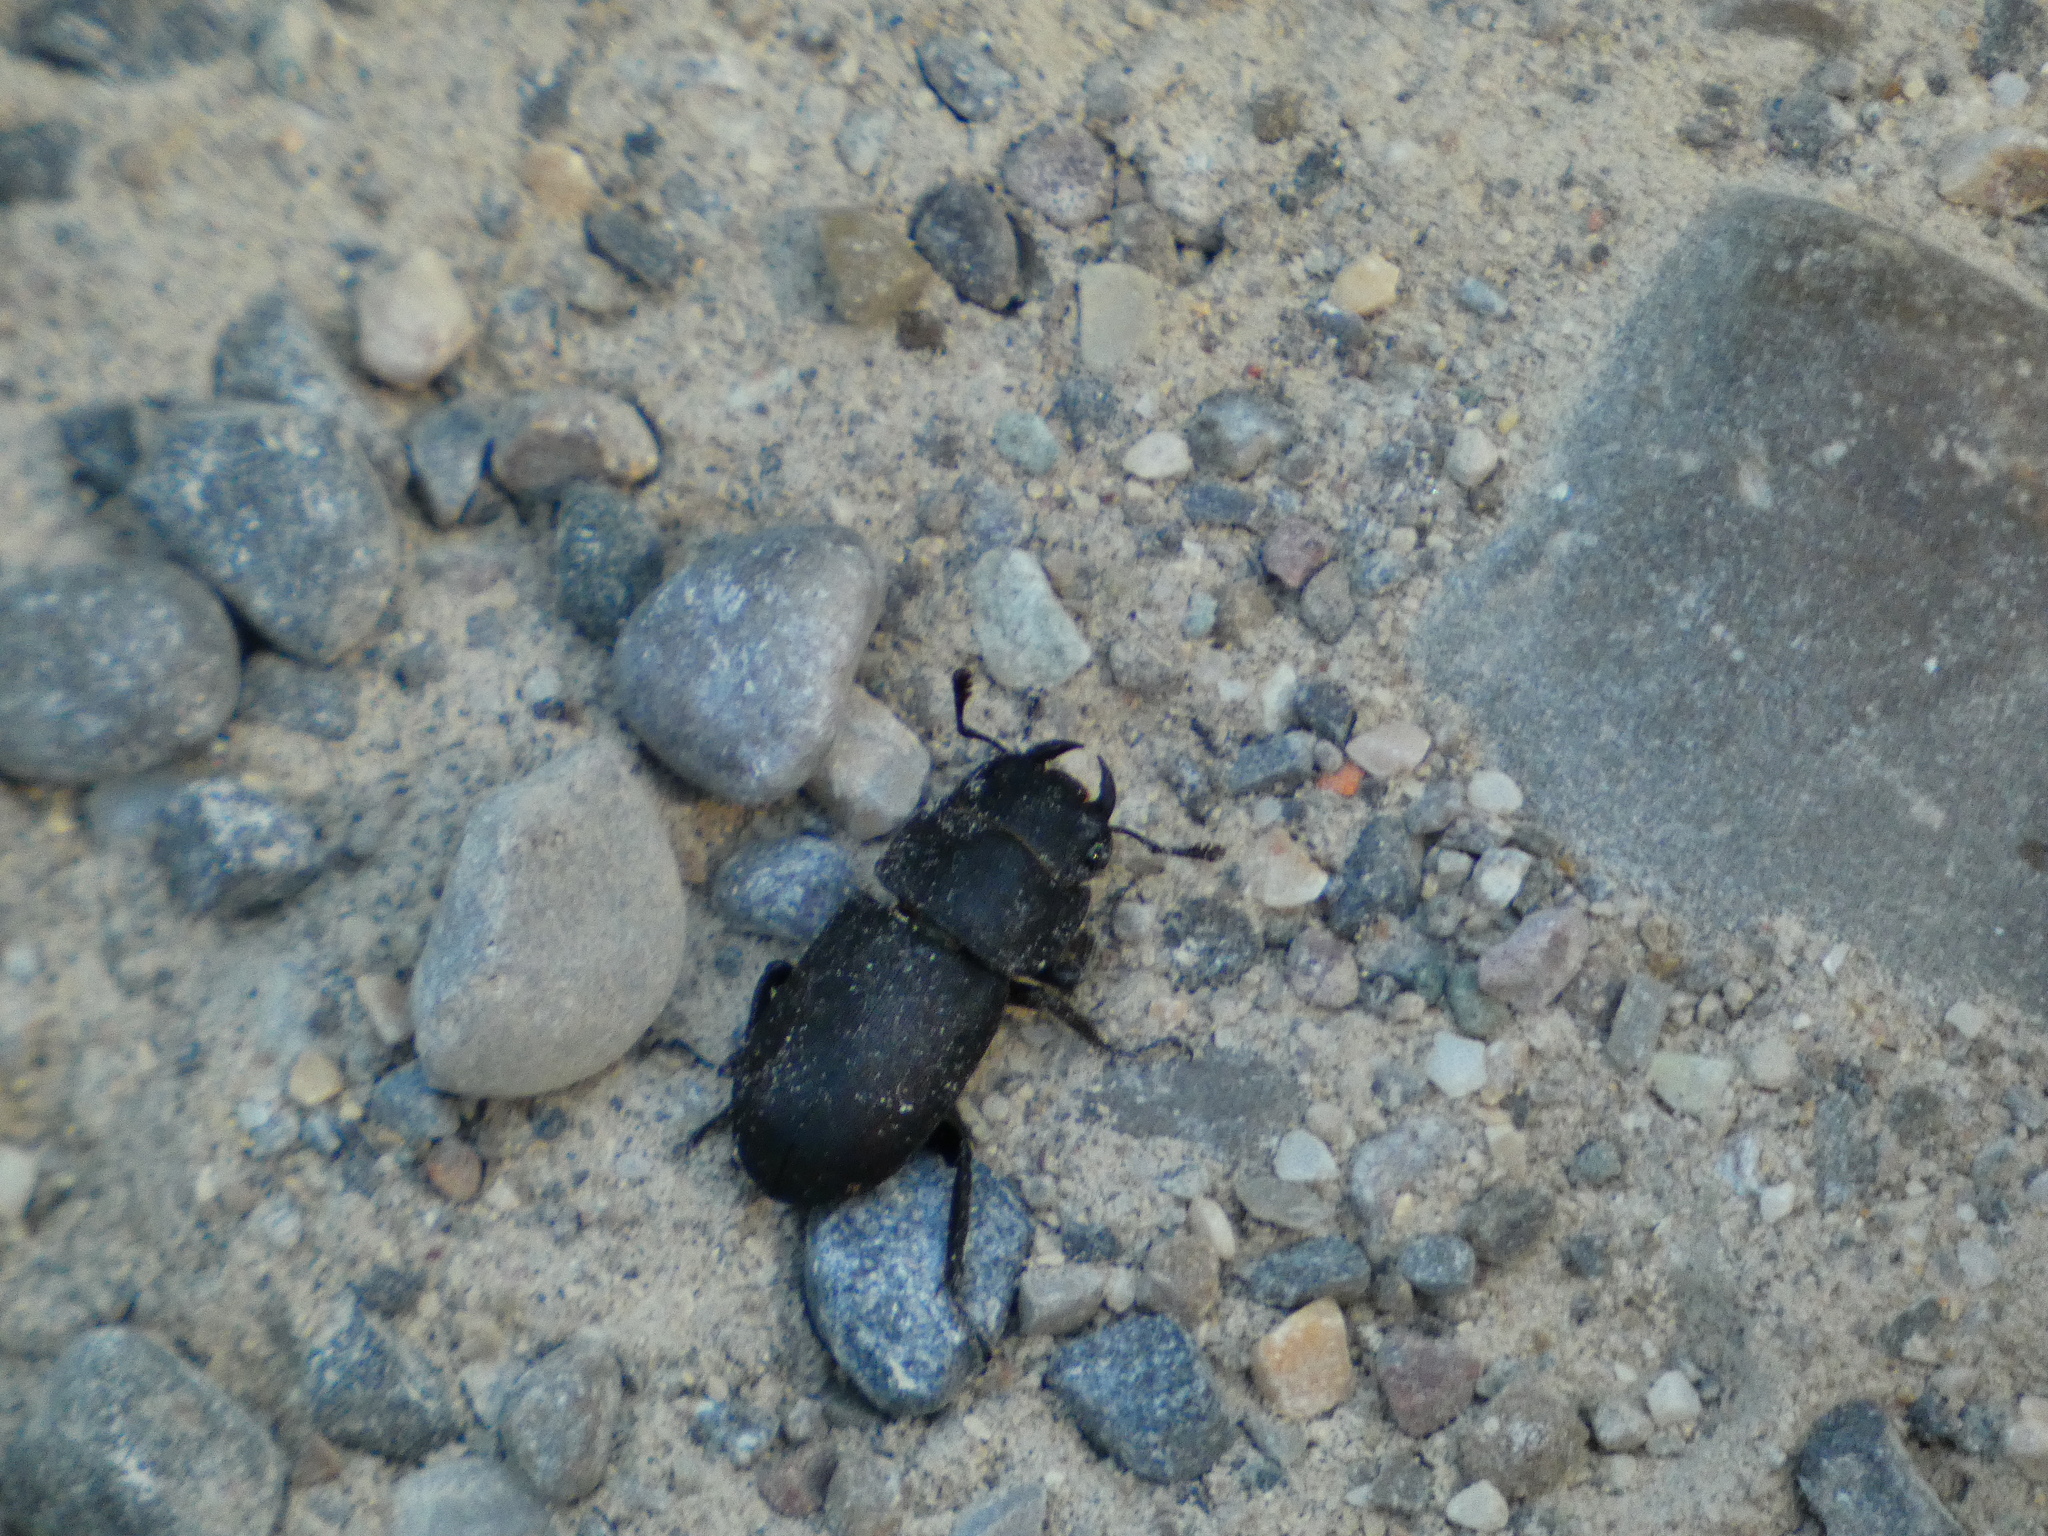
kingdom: Animalia
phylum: Arthropoda
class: Insecta
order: Coleoptera
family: Lucanidae
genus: Dorcus
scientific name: Dorcus parallelipipedus
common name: Lesser stag beetle
